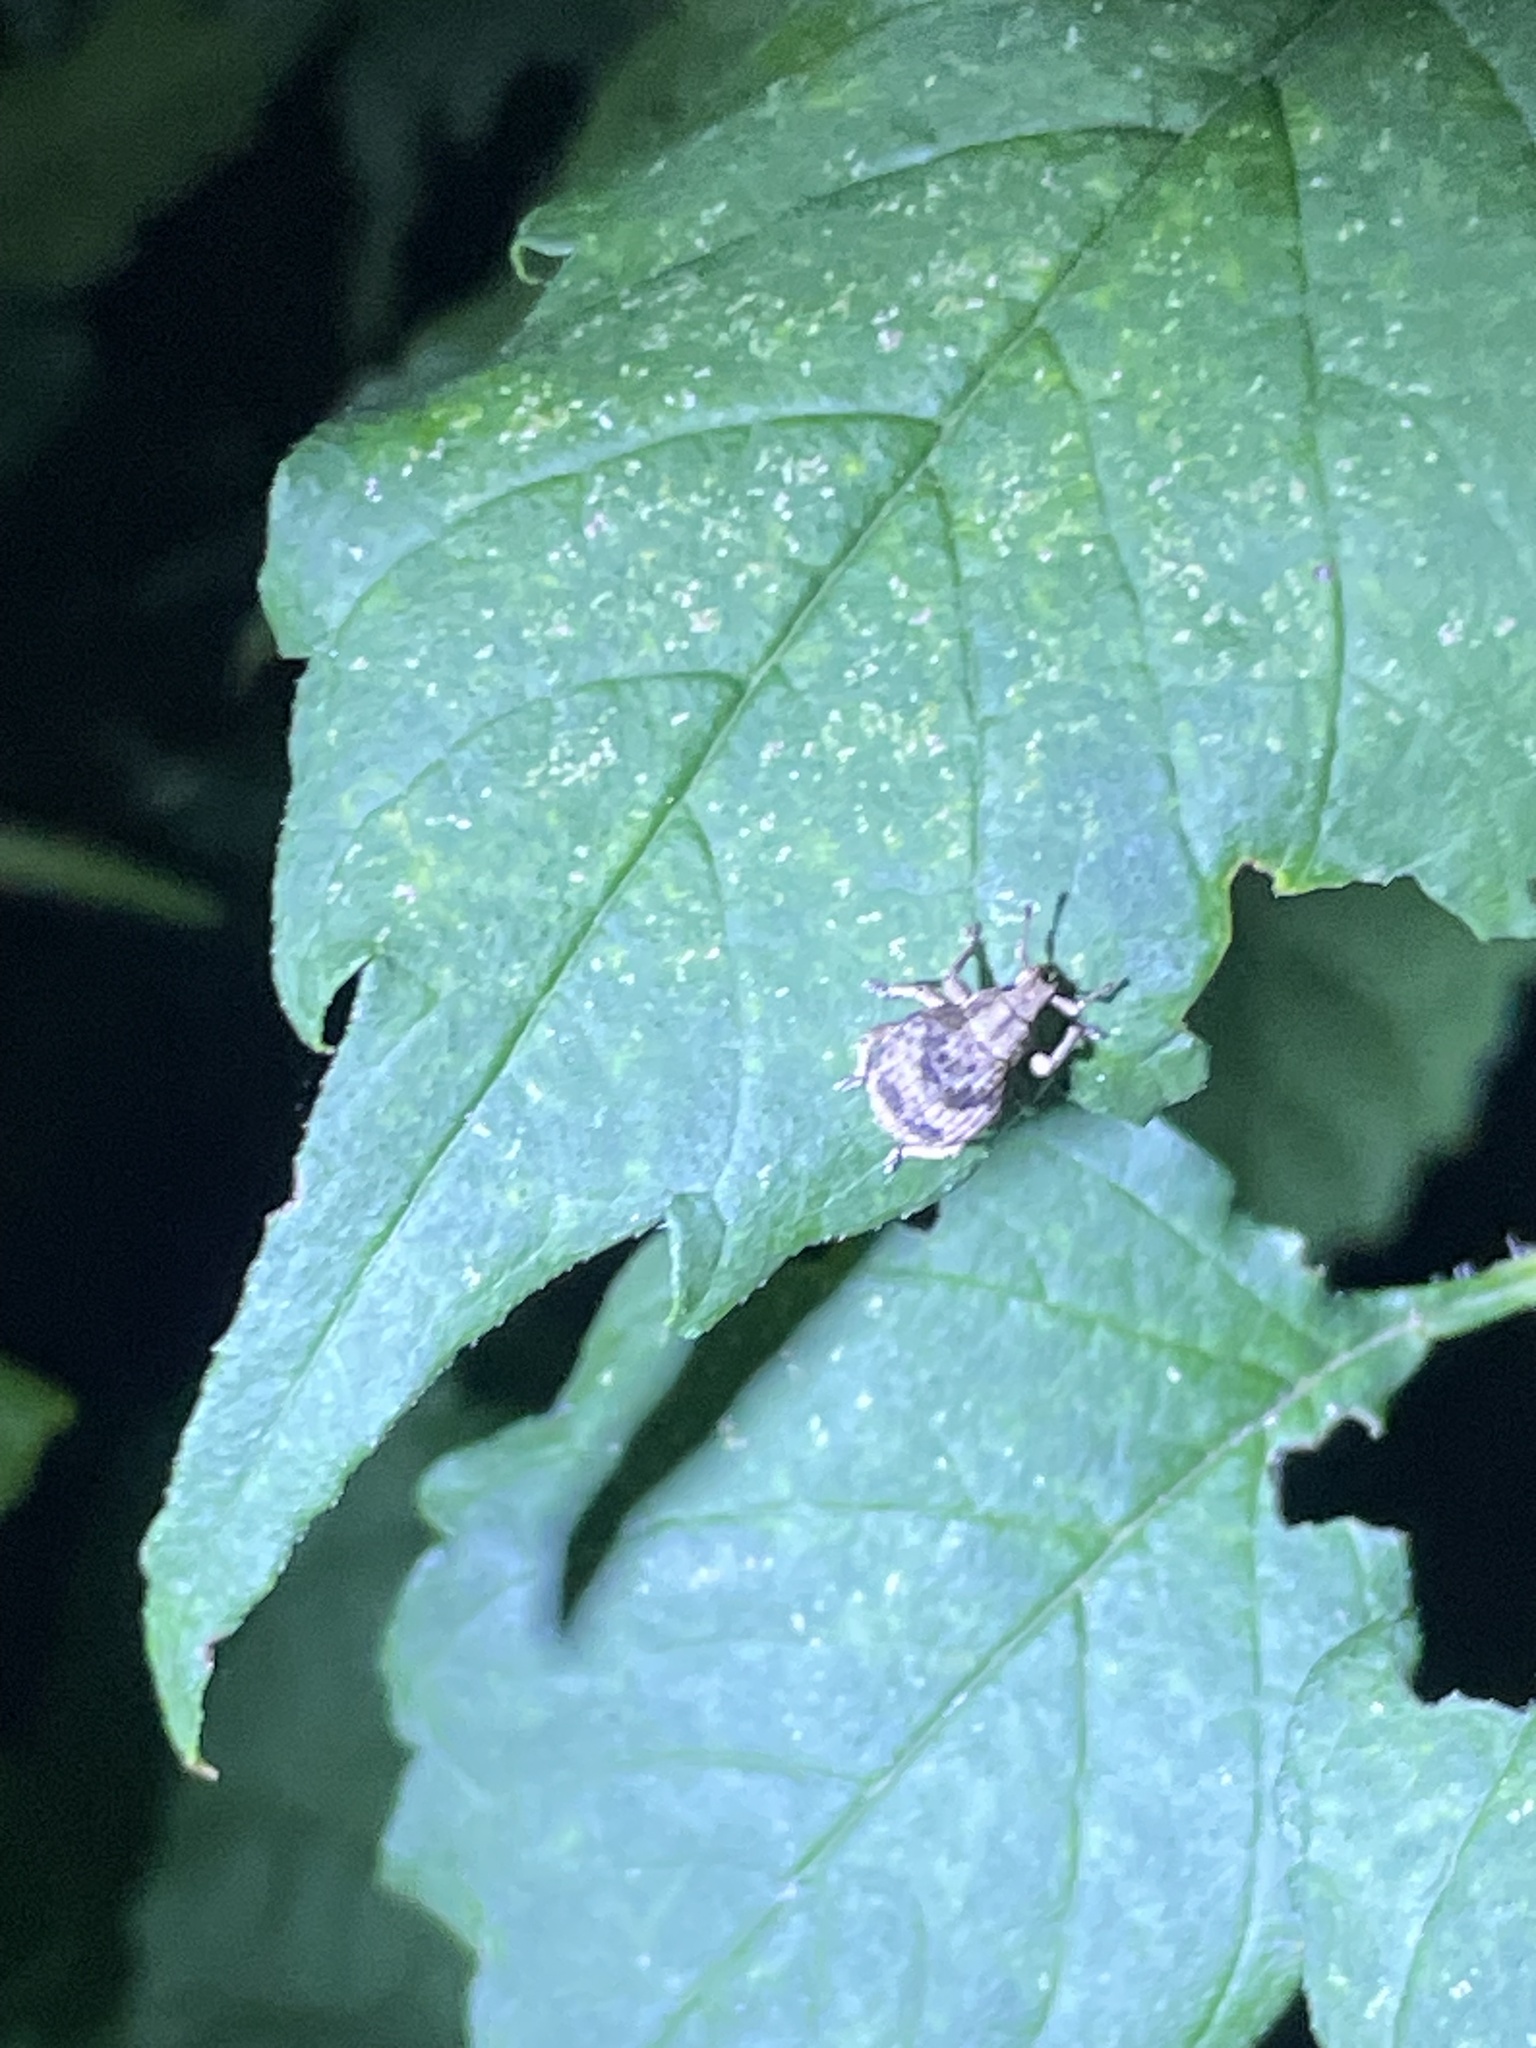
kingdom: Animalia
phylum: Arthropoda
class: Insecta
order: Coleoptera
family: Curculionidae
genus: Pseudocneorhinus
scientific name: Pseudocneorhinus bifasciatus
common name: Two-banded japanese weevil
